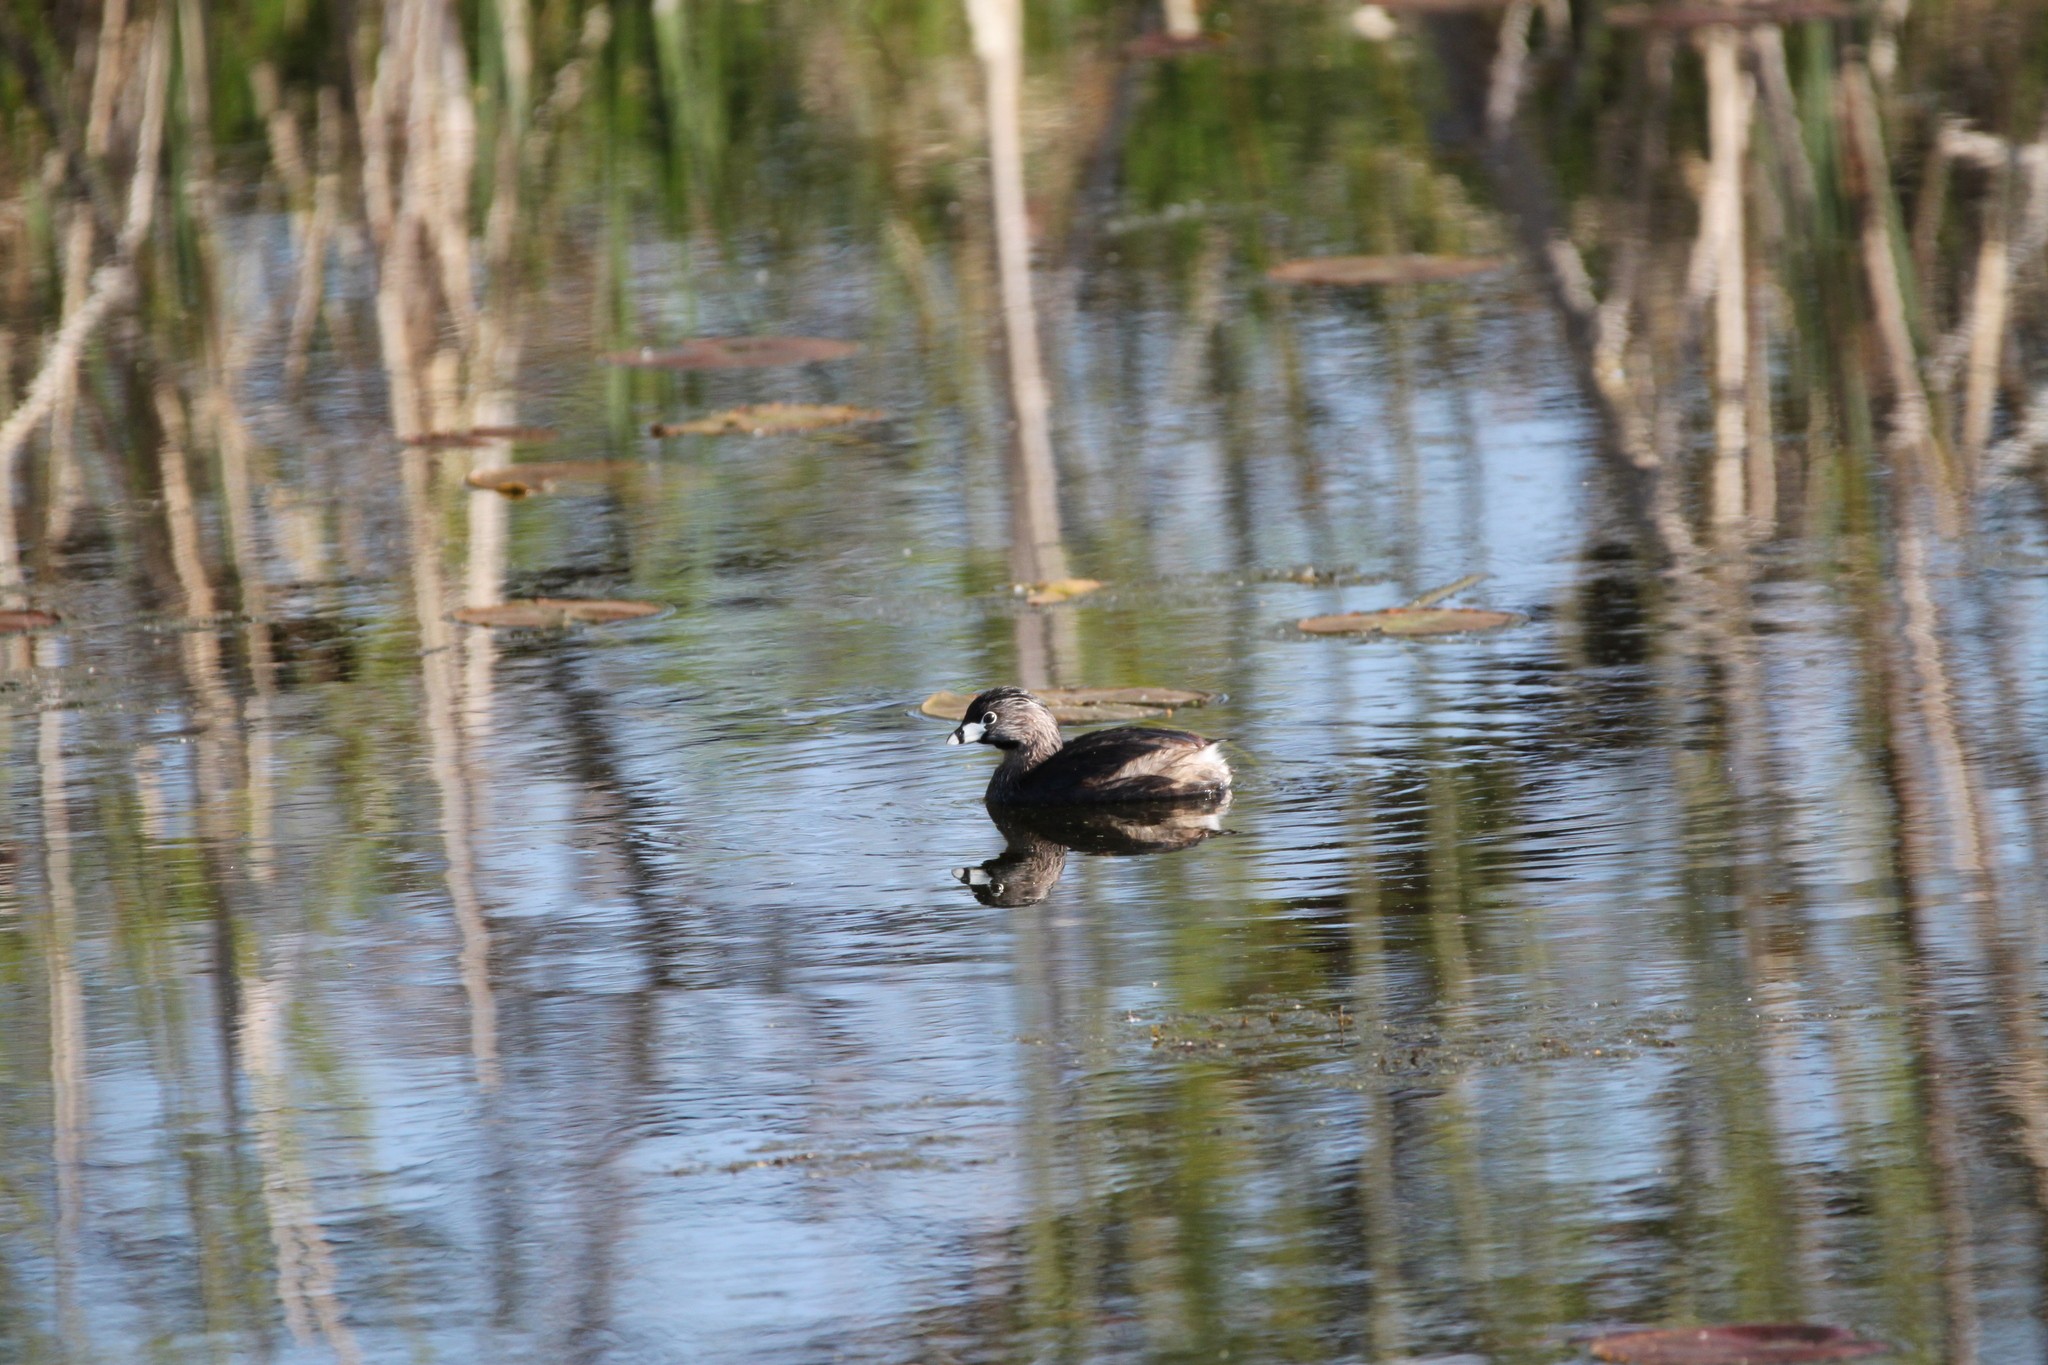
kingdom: Animalia
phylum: Chordata
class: Aves
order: Podicipediformes
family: Podicipedidae
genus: Podilymbus
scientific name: Podilymbus podiceps
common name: Pied-billed grebe
